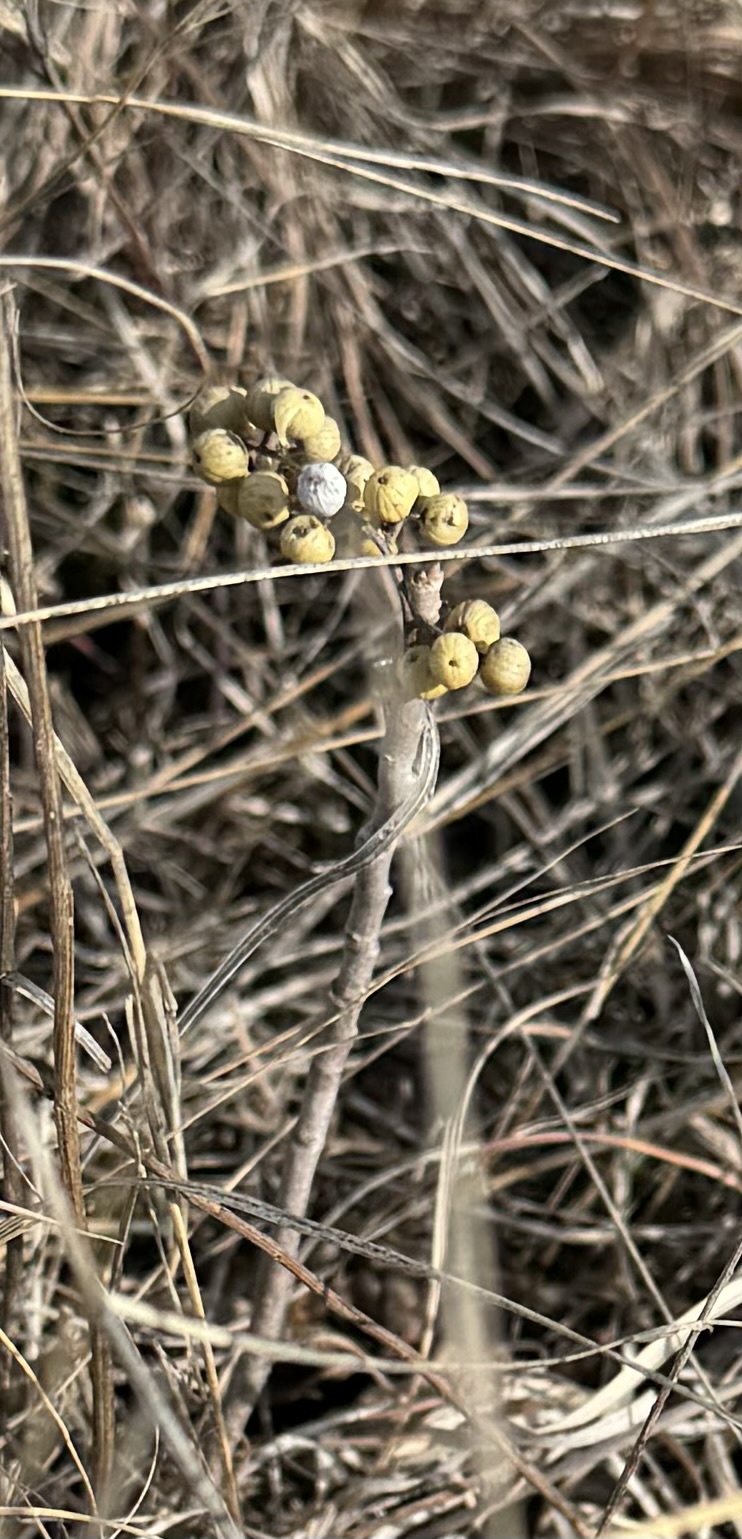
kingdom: Plantae
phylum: Tracheophyta
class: Magnoliopsida
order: Sapindales
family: Anacardiaceae
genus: Toxicodendron
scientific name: Toxicodendron rydbergii
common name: Rydberg's poison-ivy
